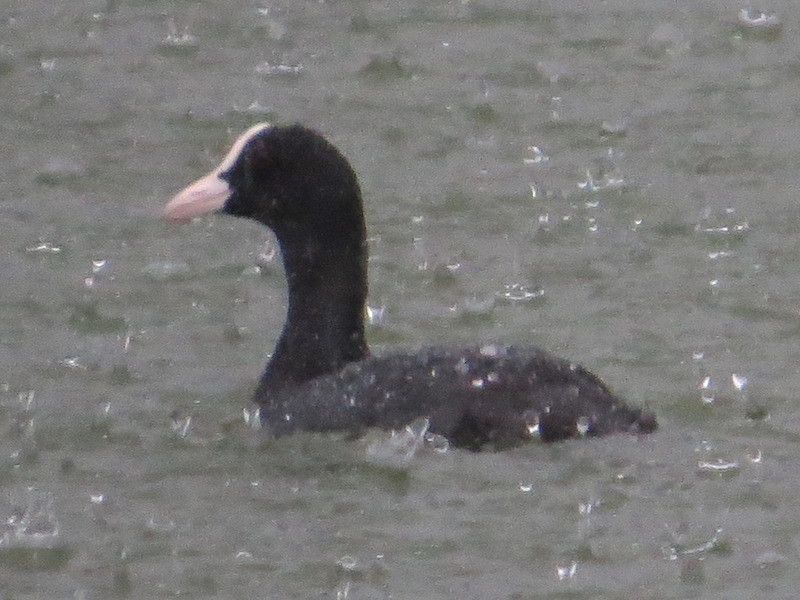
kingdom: Animalia
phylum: Chordata
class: Aves
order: Gruiformes
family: Rallidae
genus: Fulica
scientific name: Fulica atra
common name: Eurasian coot
